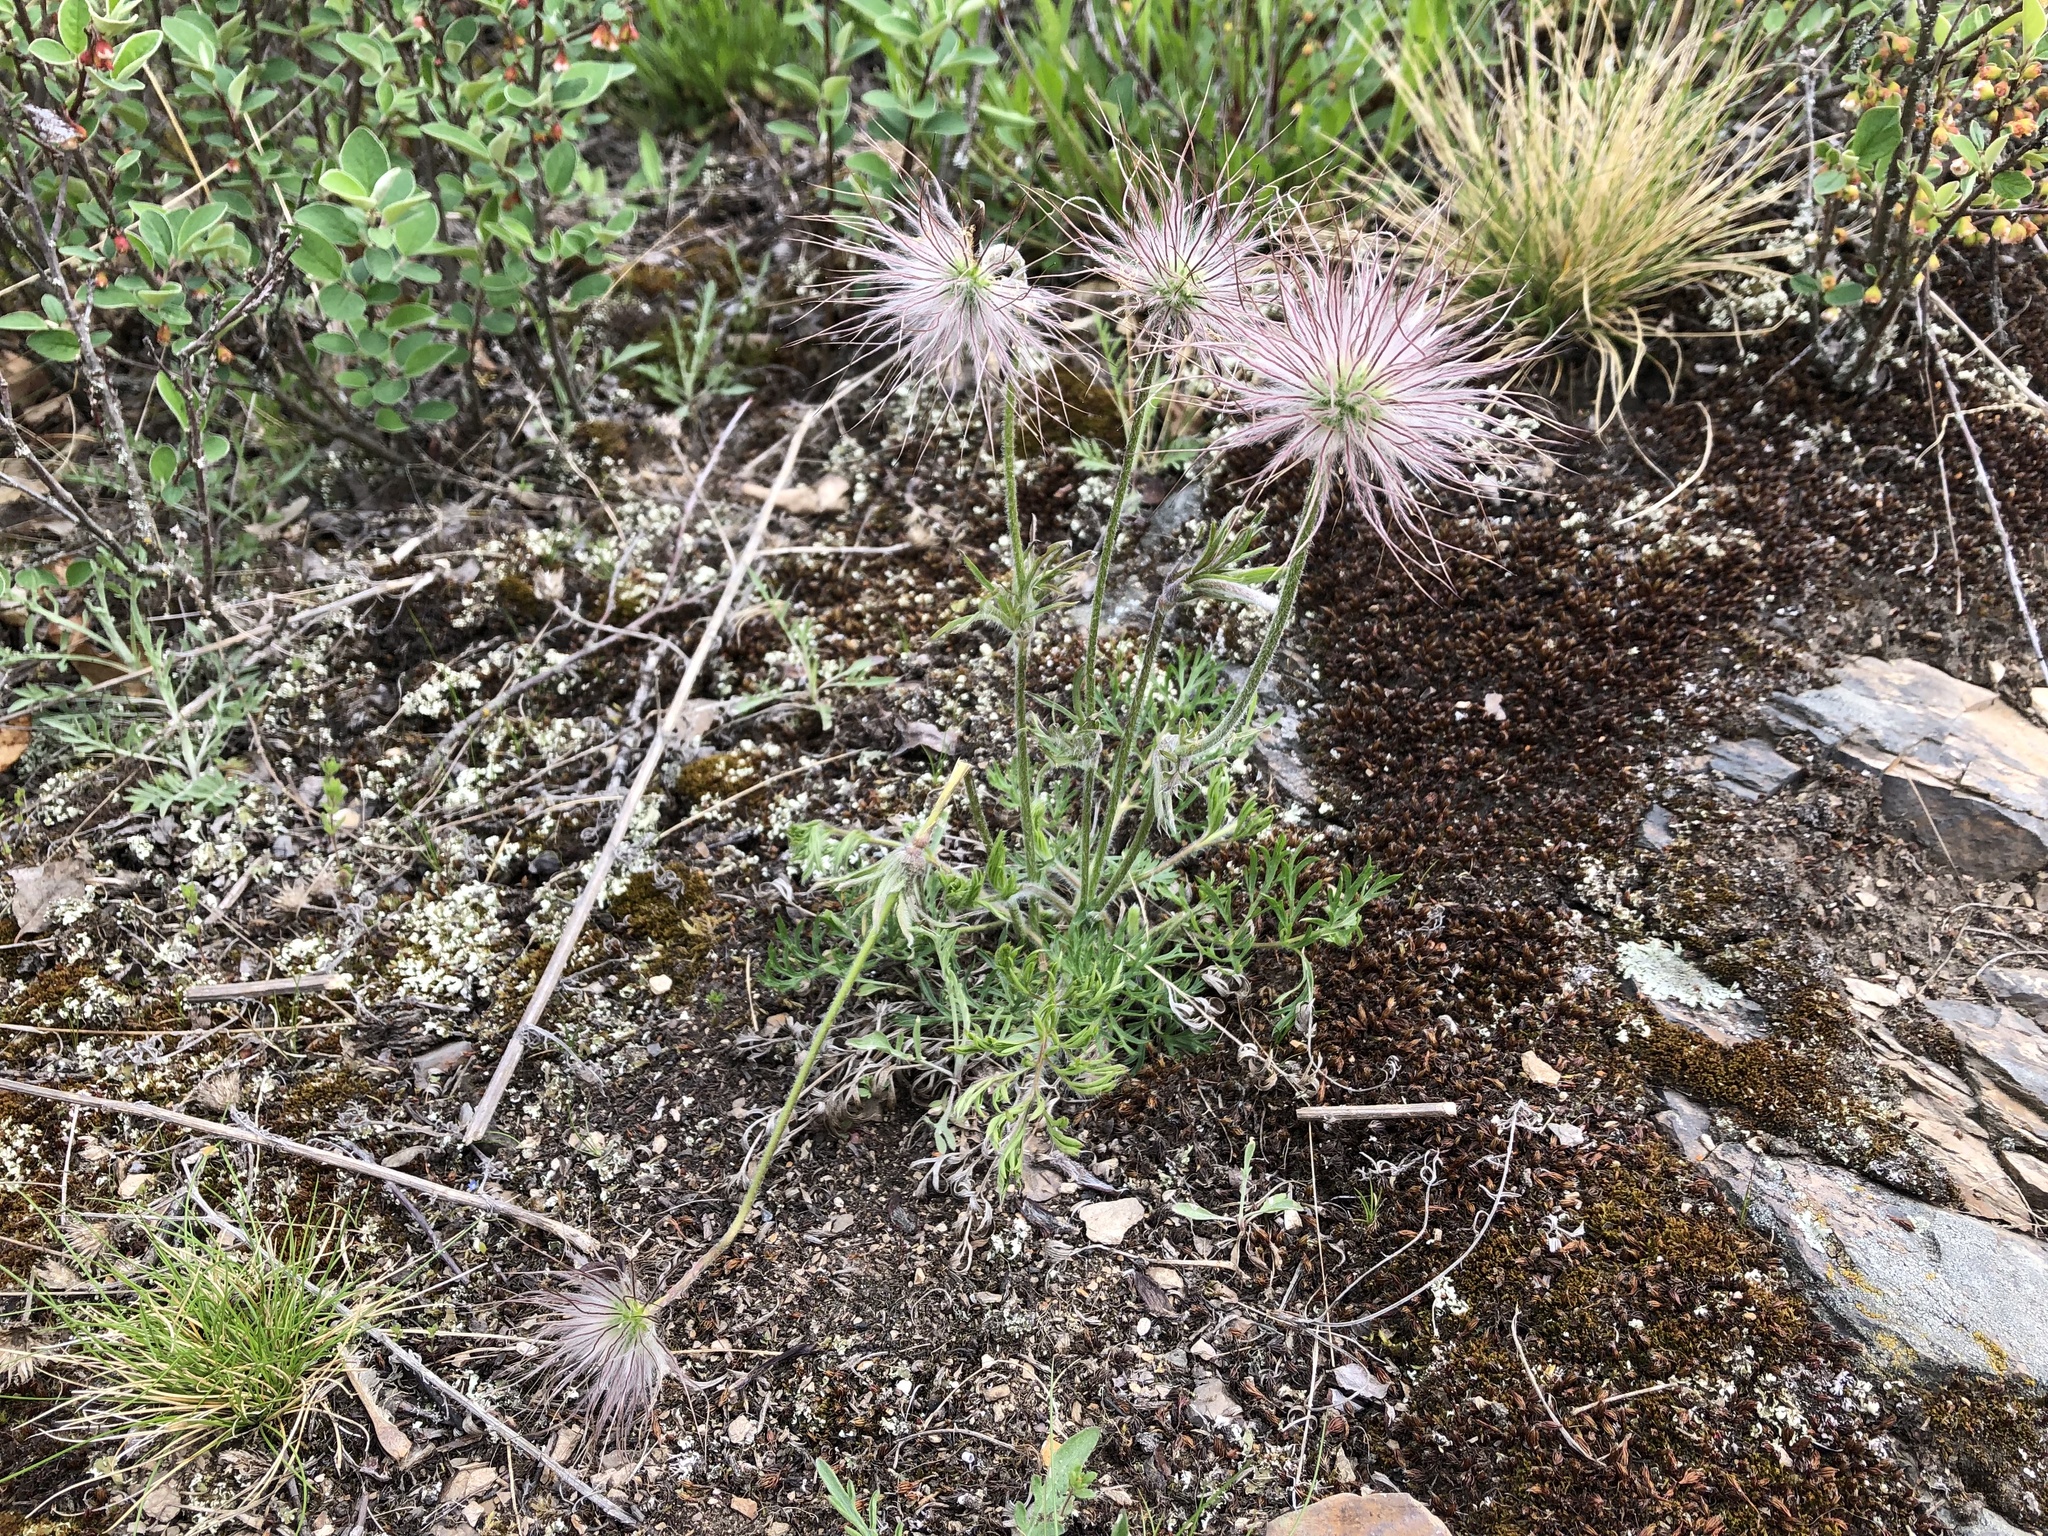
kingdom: Plantae
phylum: Tracheophyta
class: Magnoliopsida
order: Ranunculales
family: Ranunculaceae
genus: Pulsatilla
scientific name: Pulsatilla pratensis
